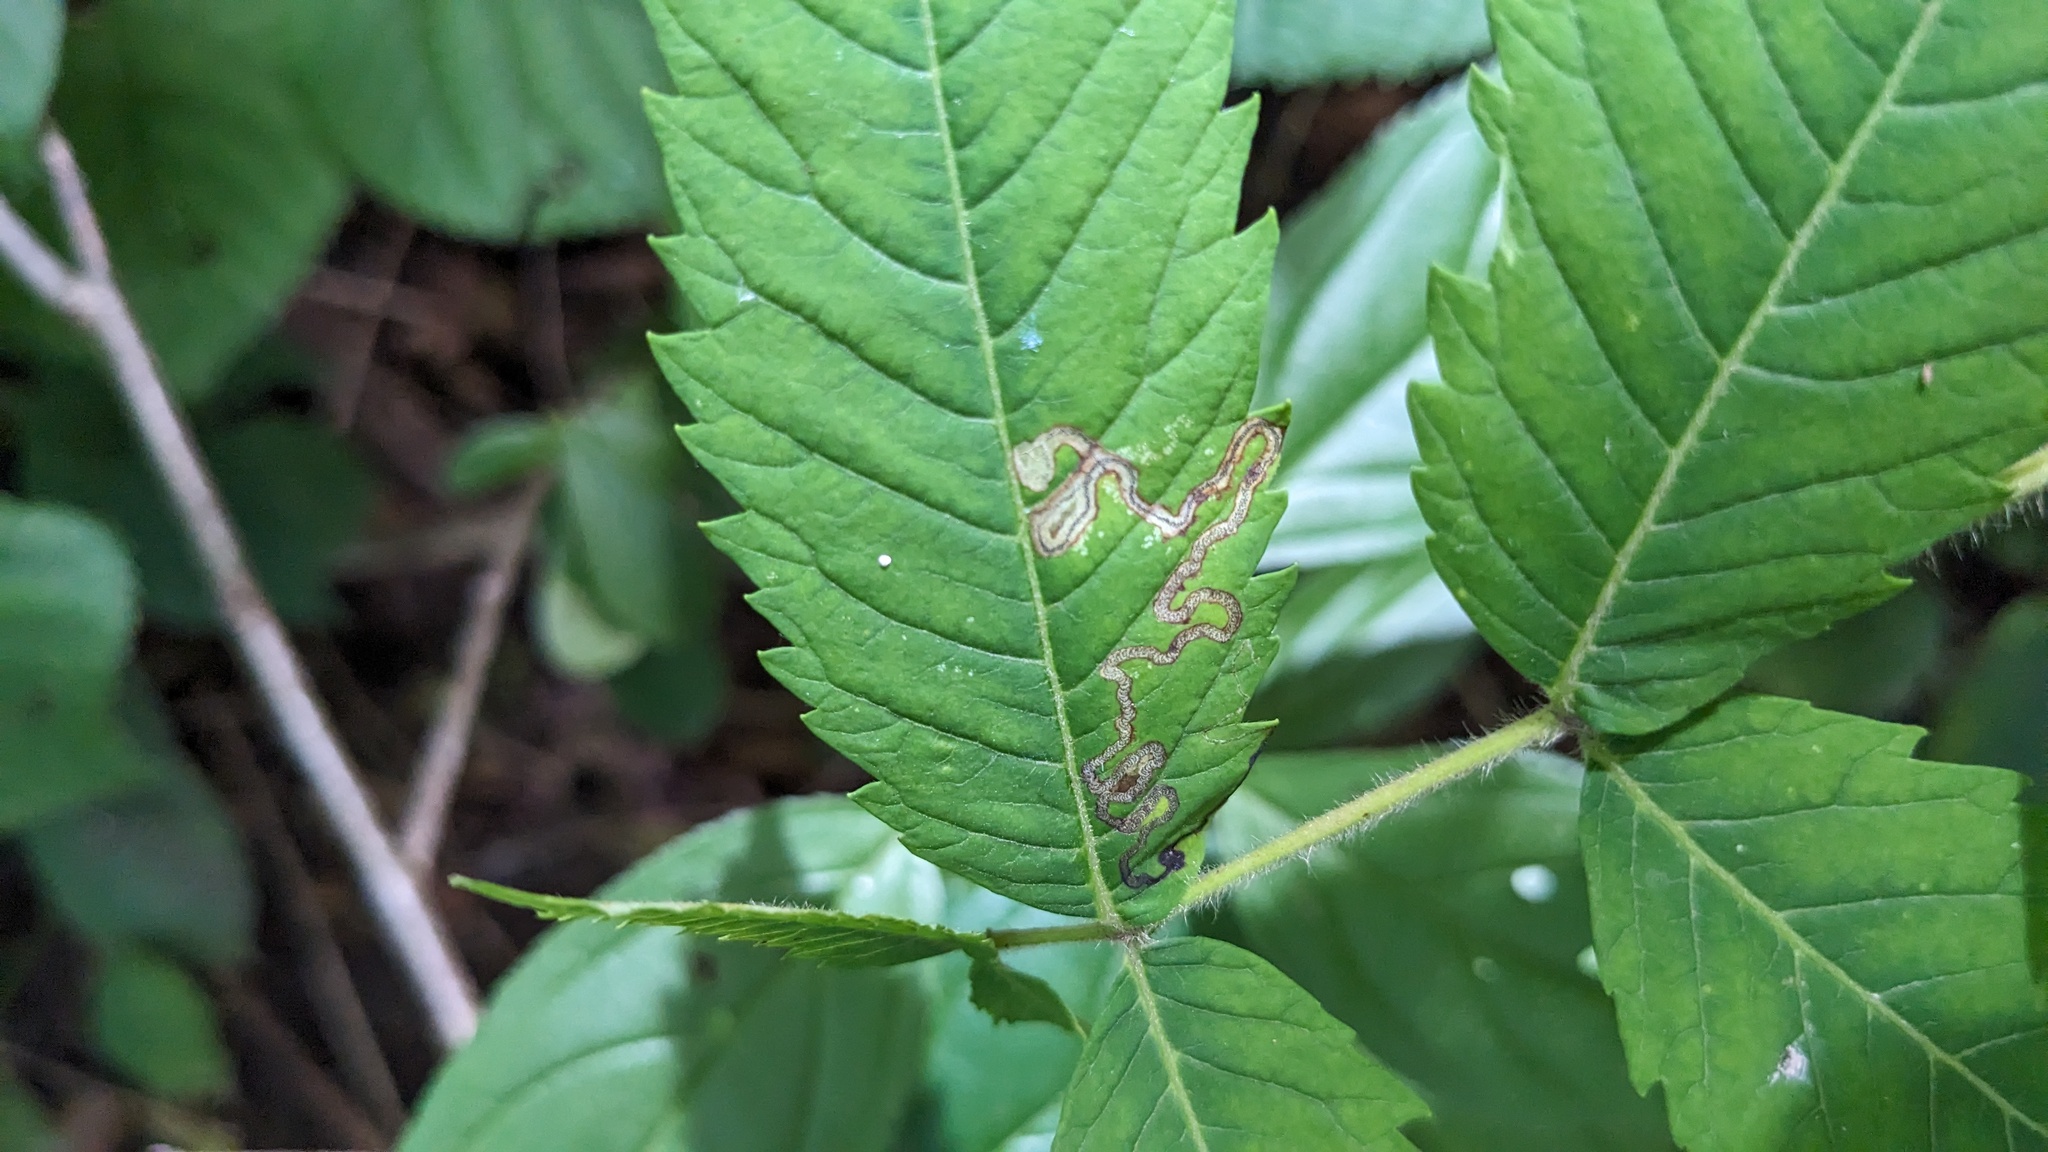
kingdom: Animalia
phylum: Arthropoda
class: Insecta
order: Lepidoptera
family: Nepticulidae
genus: Stigmella
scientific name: Stigmella intermedia
